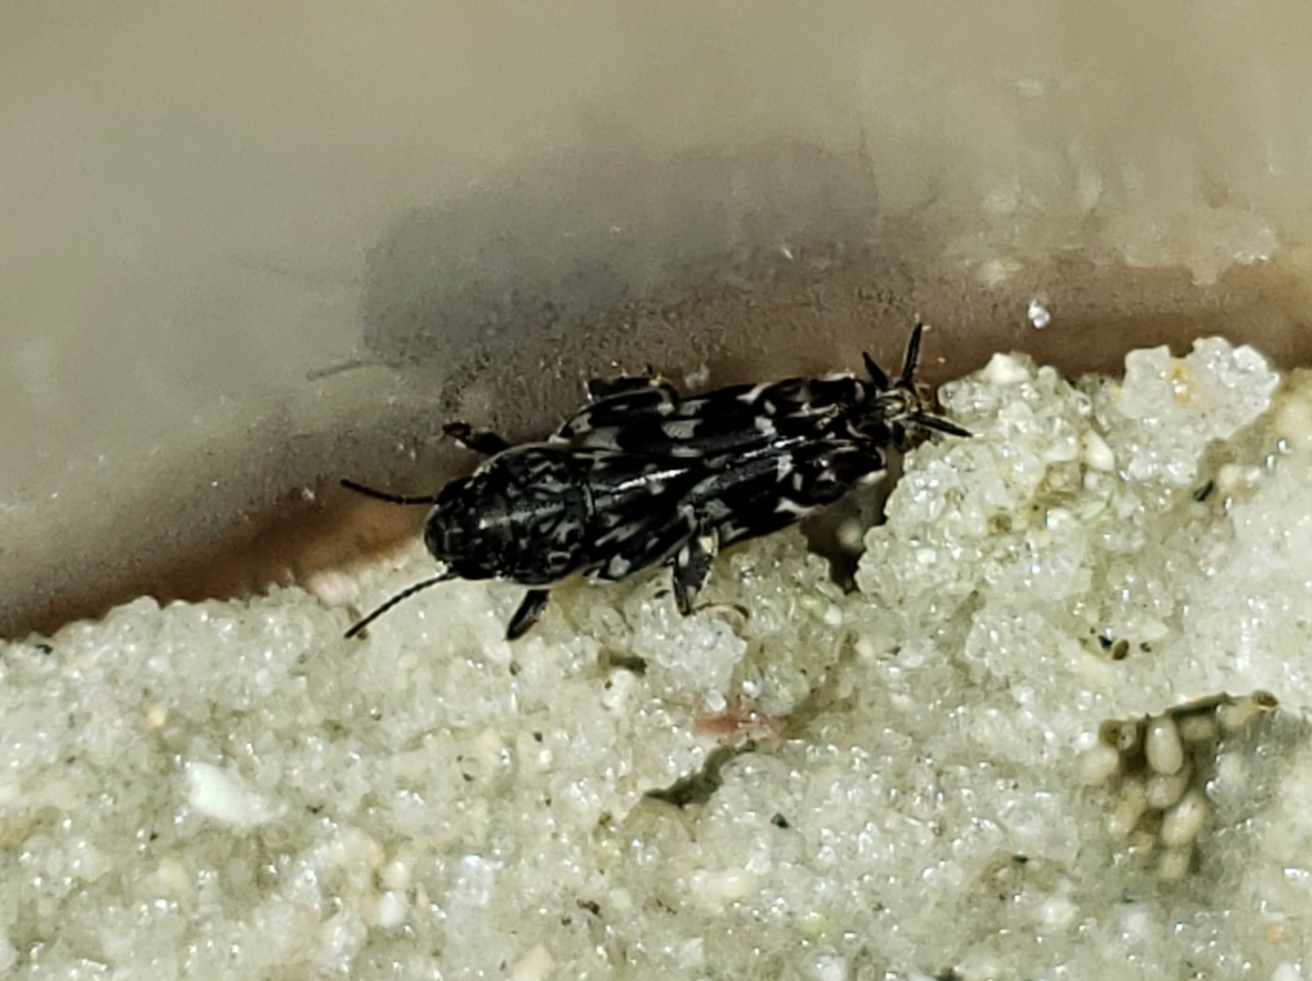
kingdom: Animalia
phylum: Arthropoda
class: Insecta
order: Orthoptera
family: Tridactylidae
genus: Ellipes
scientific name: Ellipes minuta
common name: Minute pygmy locust
